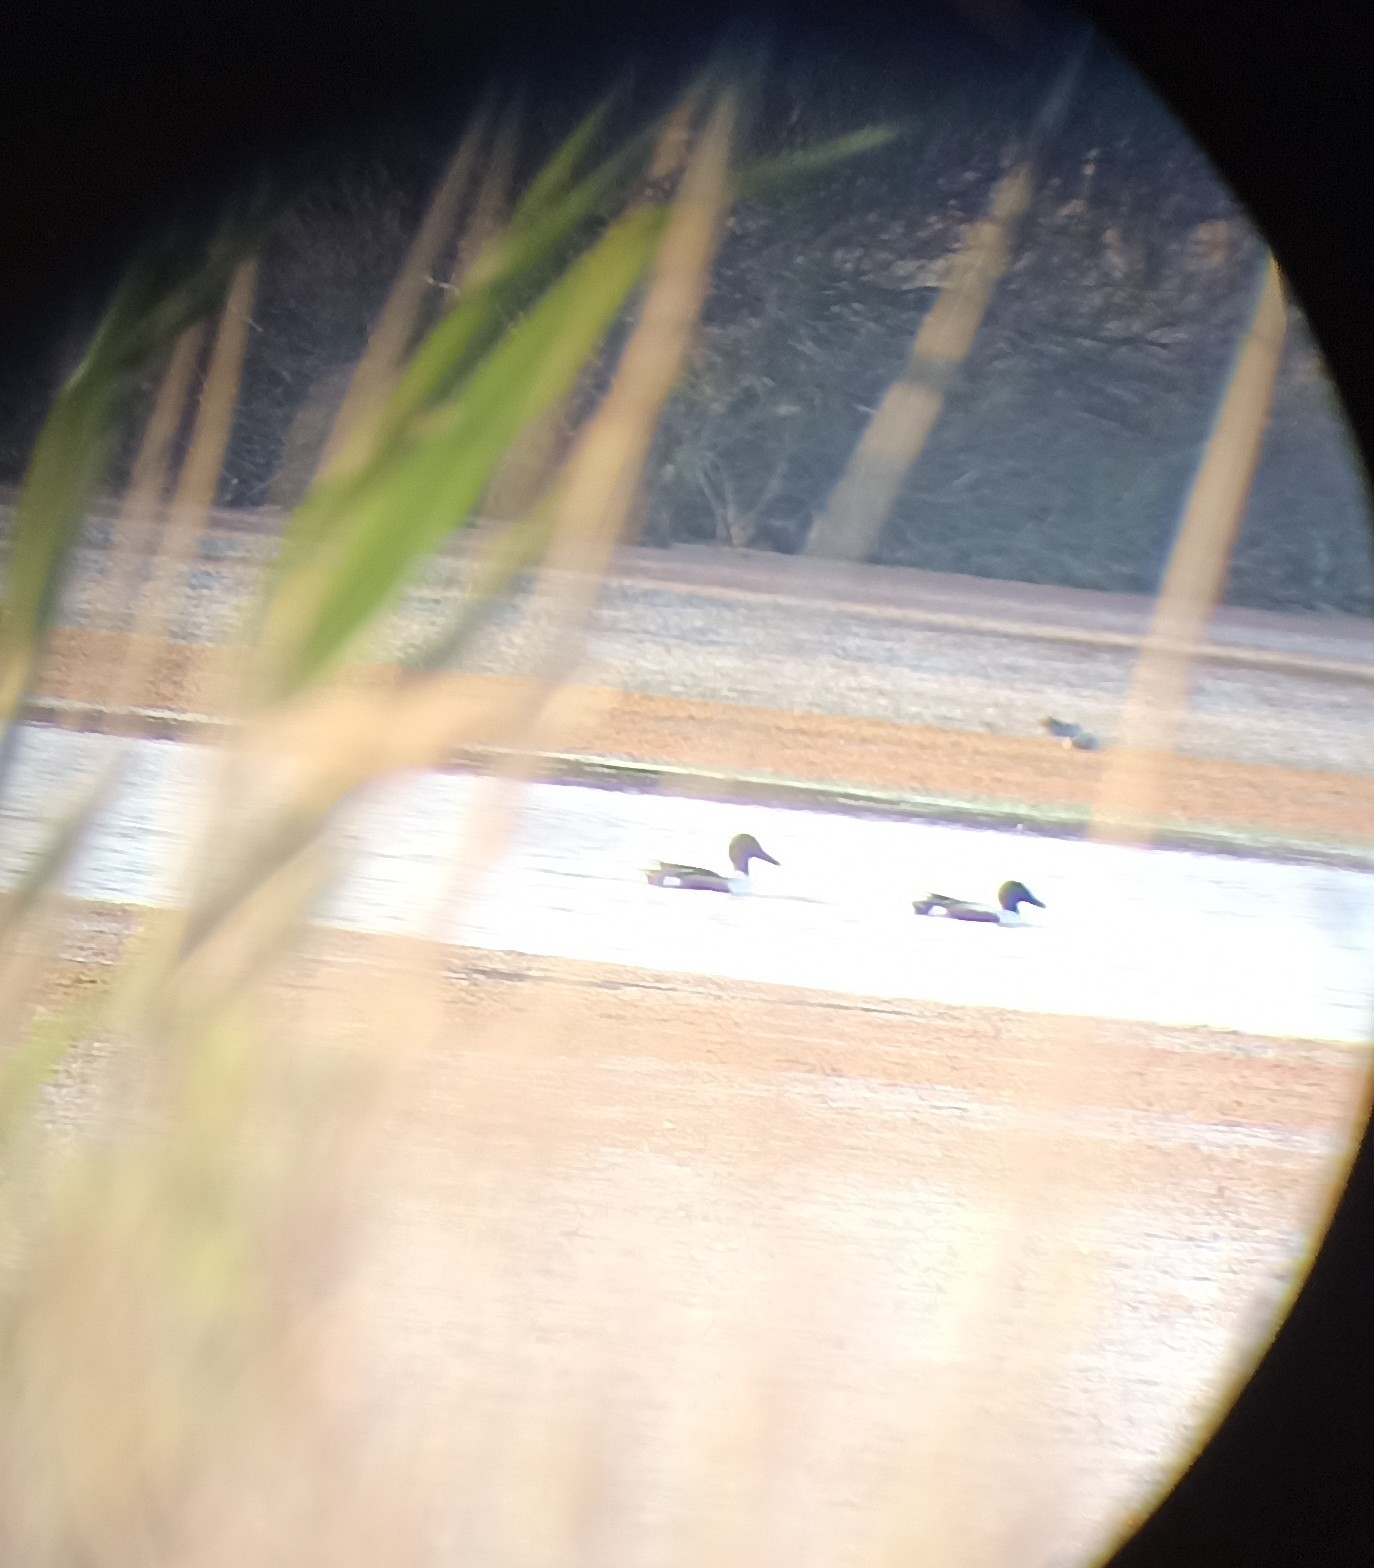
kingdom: Animalia
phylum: Chordata
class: Aves
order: Anseriformes
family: Anatidae
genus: Spatula
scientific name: Spatula clypeata
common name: Northern shoveler
